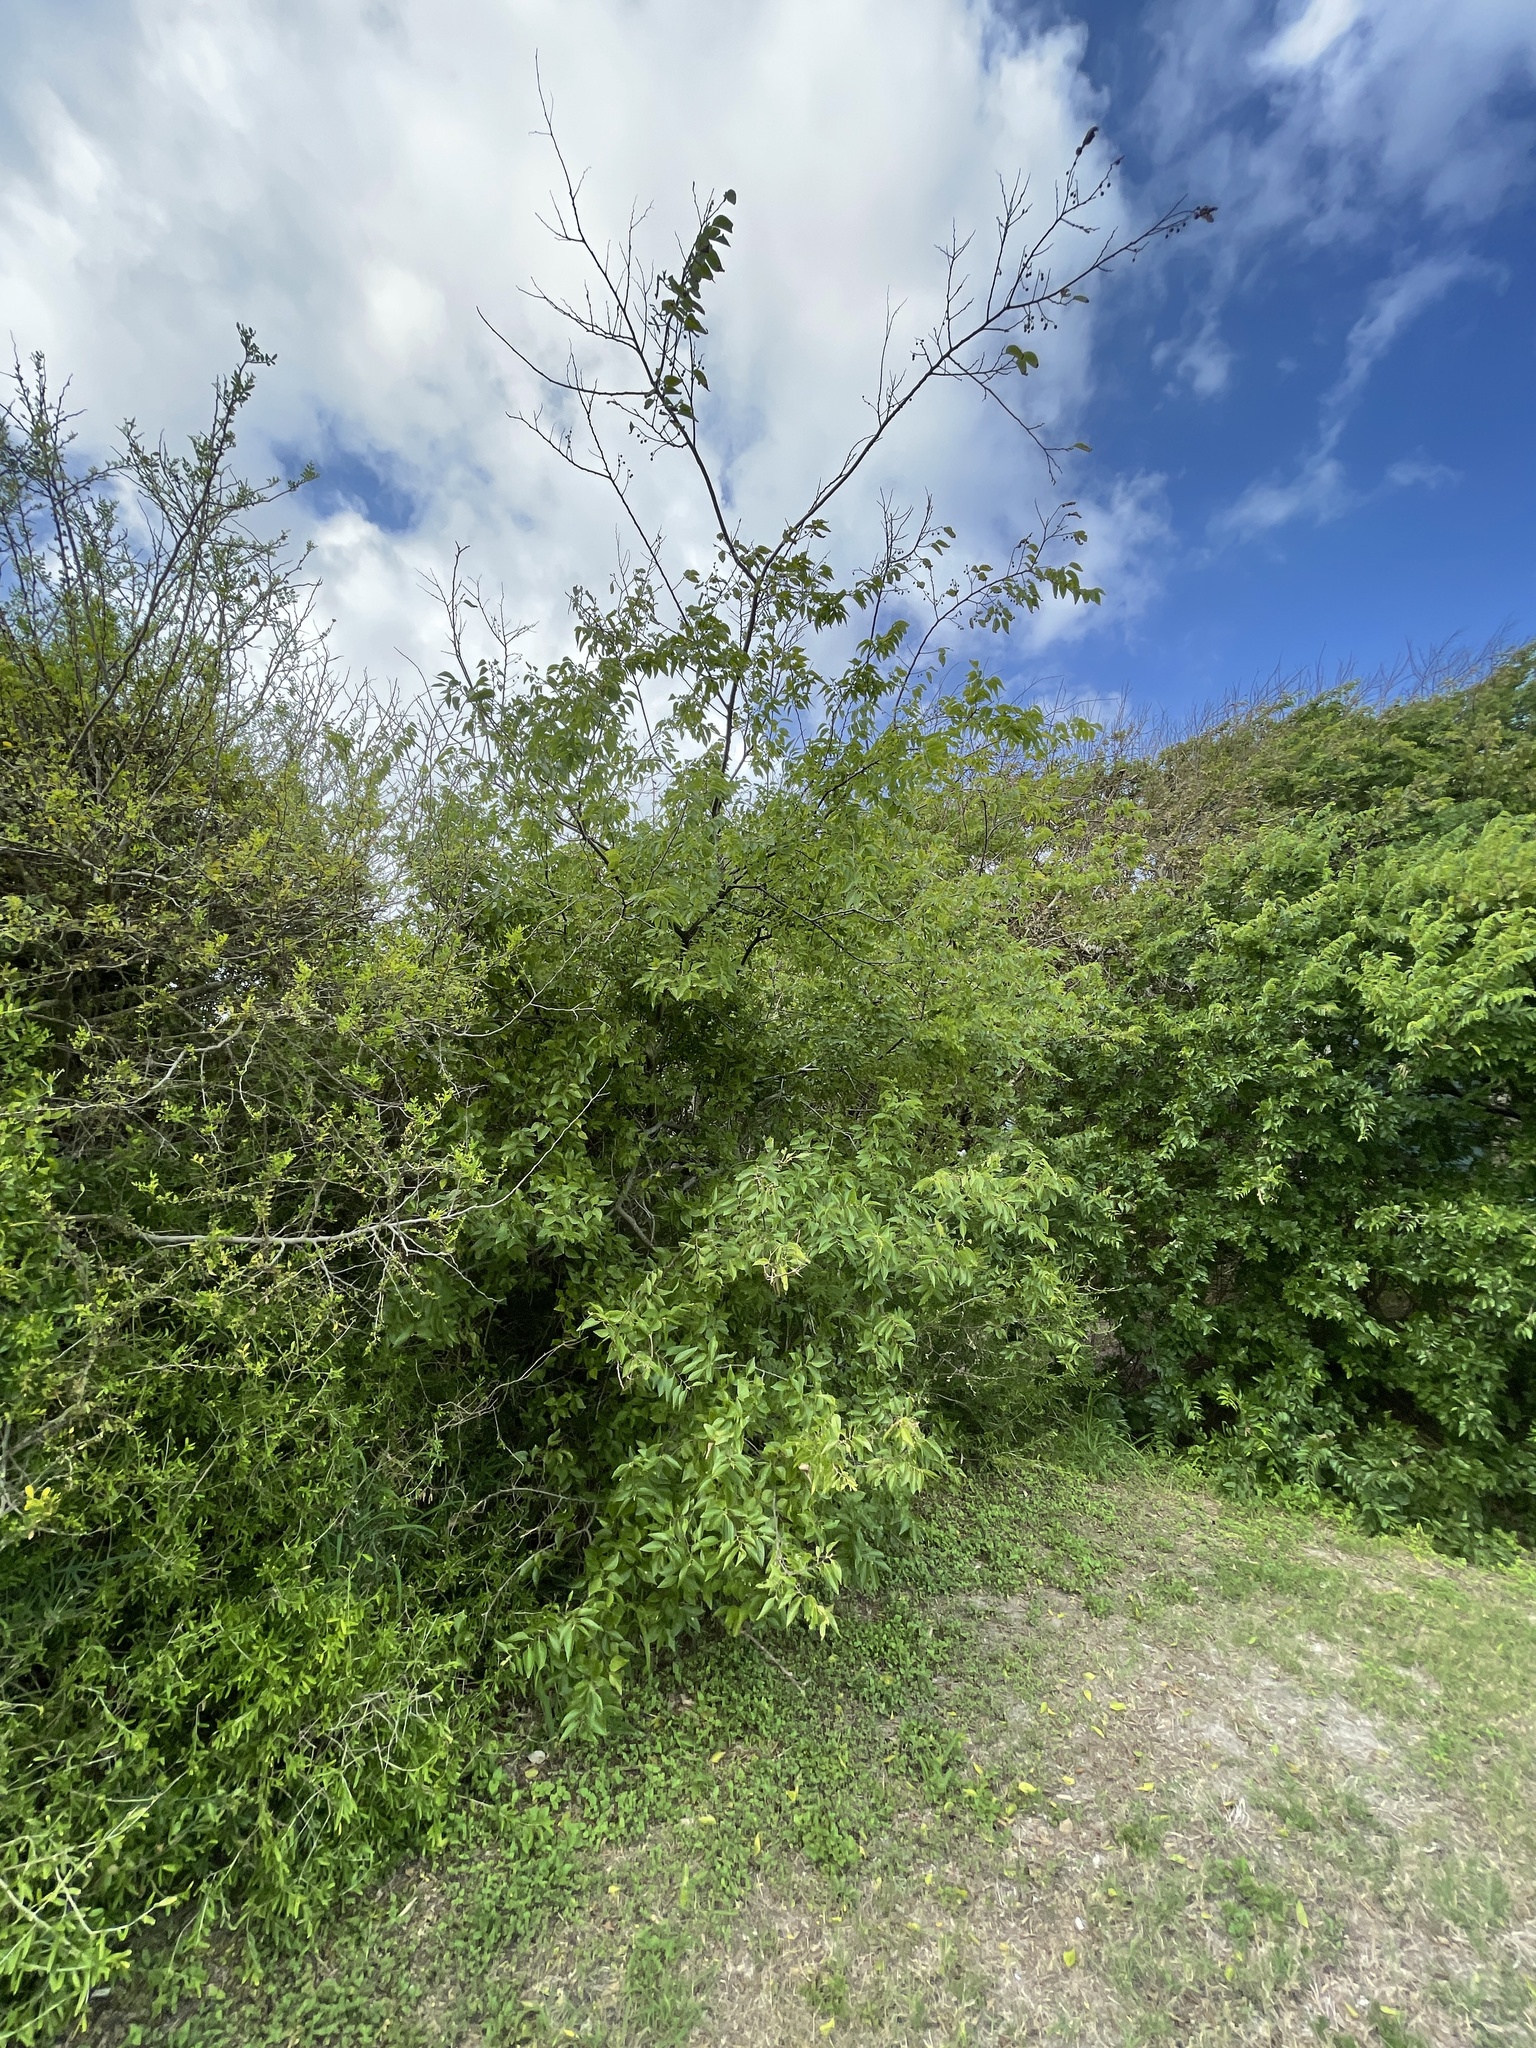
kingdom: Plantae
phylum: Tracheophyta
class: Magnoliopsida
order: Rosales
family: Cannabaceae
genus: Celtis
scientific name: Celtis laevigata
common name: Sugarberry
